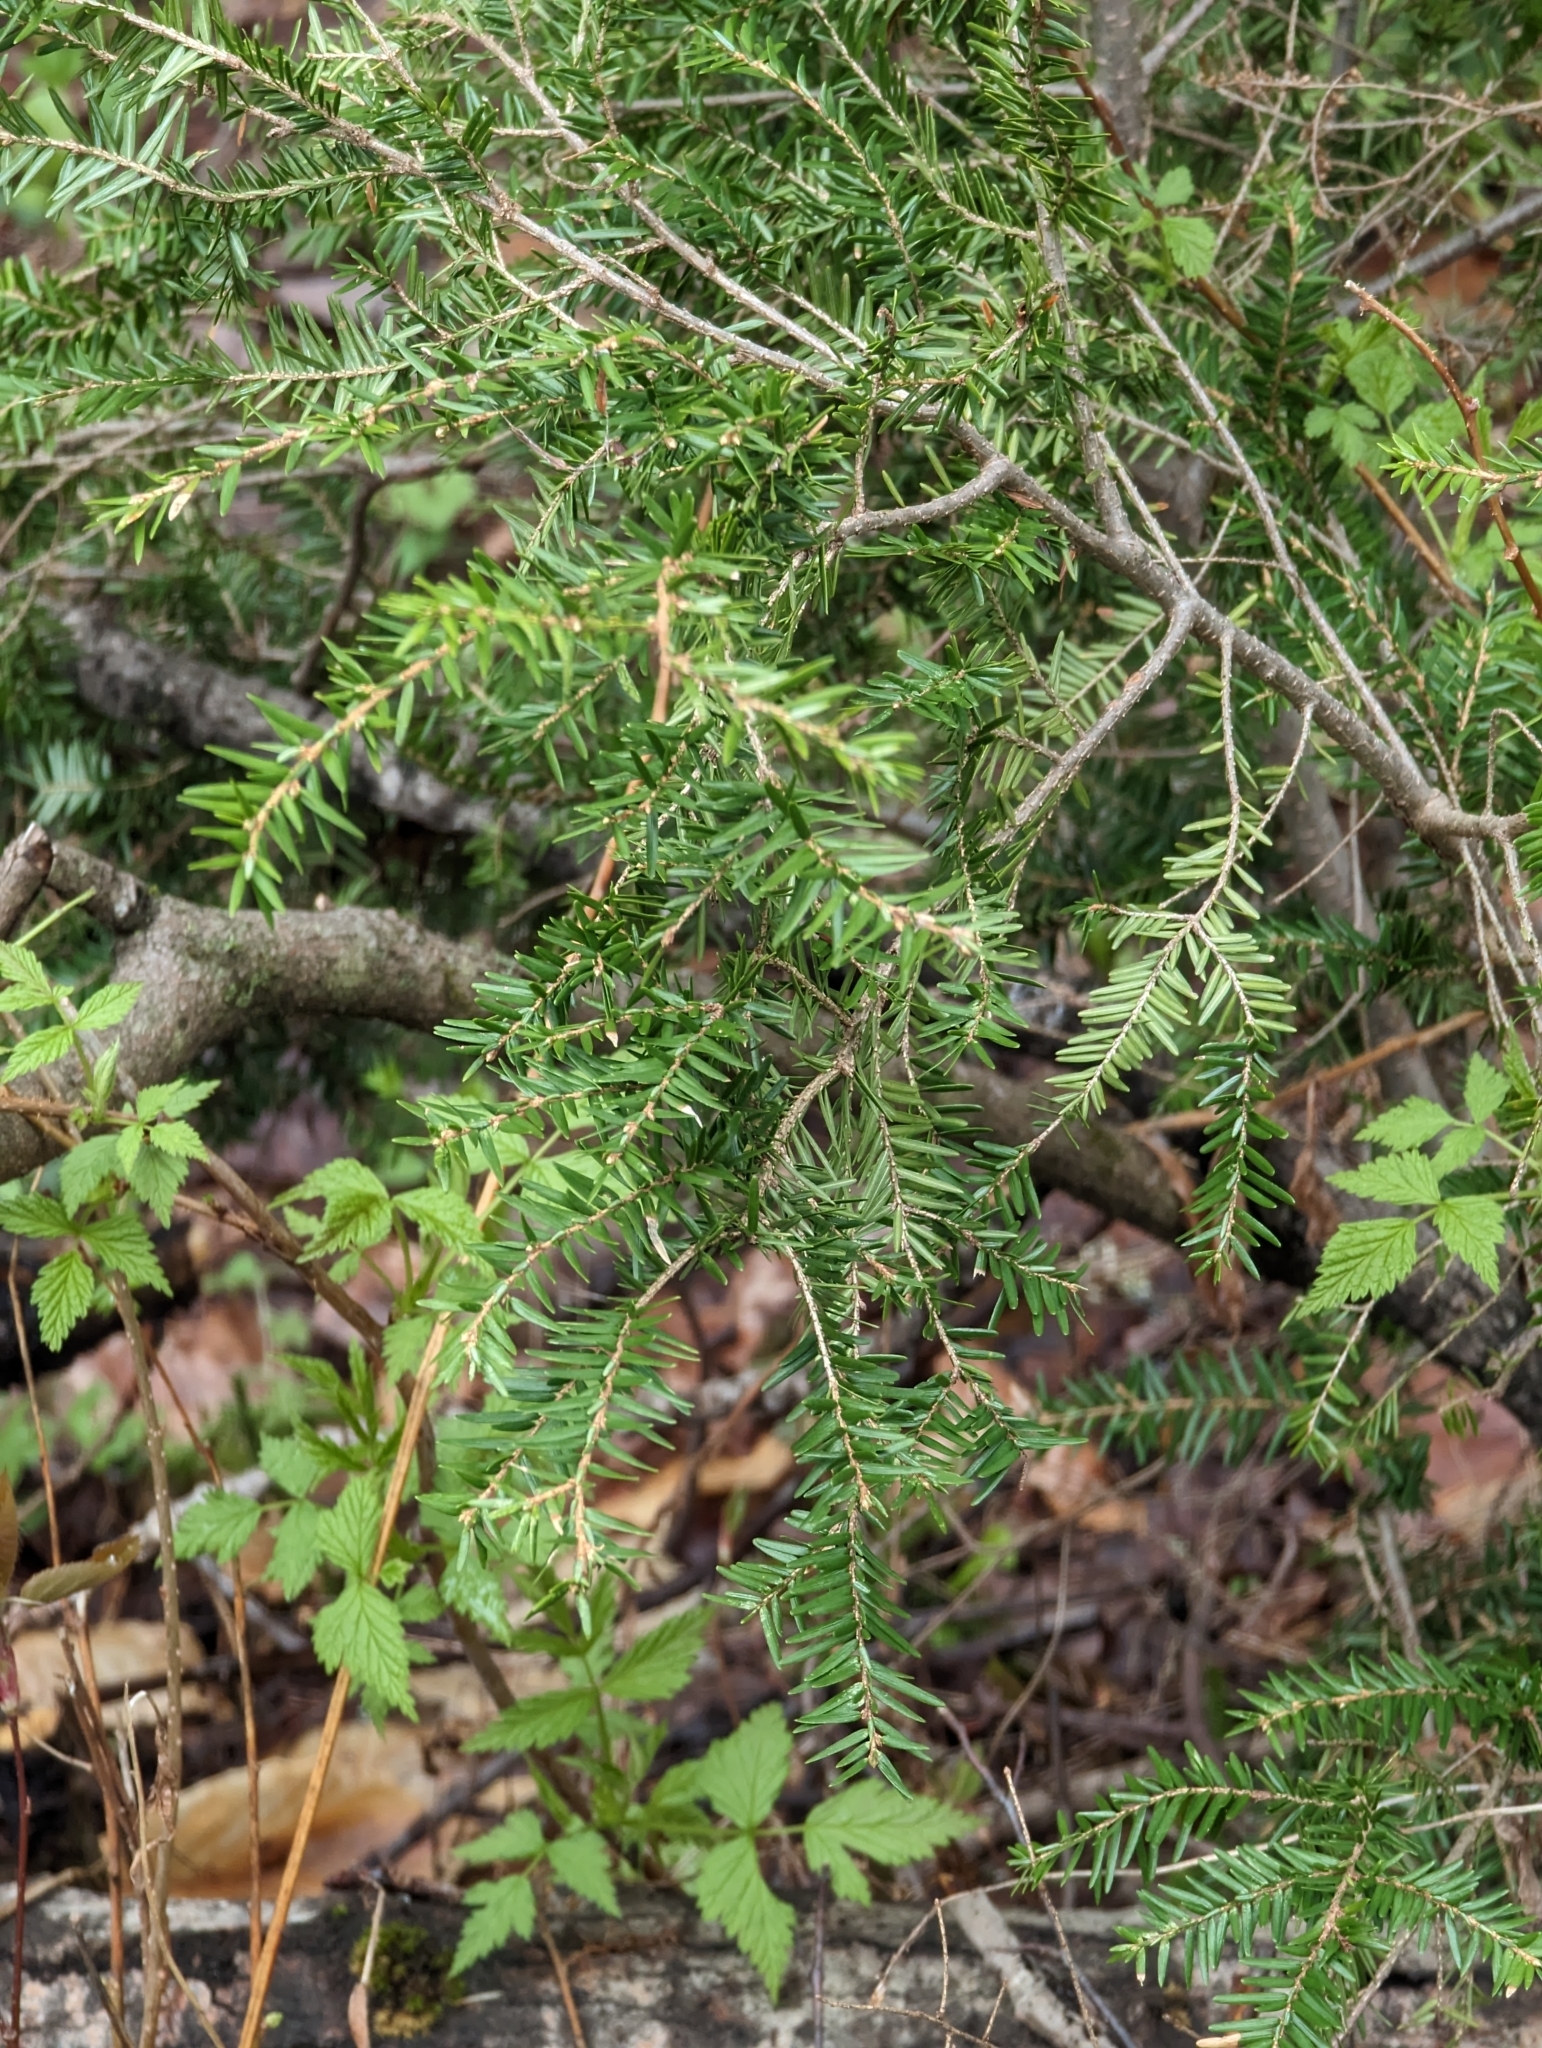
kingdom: Plantae
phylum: Tracheophyta
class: Pinopsida
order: Pinales
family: Pinaceae
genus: Tsuga
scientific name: Tsuga canadensis
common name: Eastern hemlock
